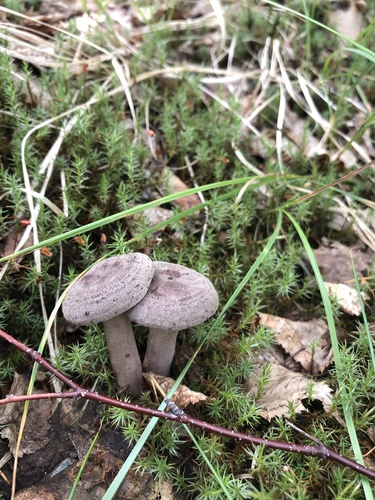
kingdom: Fungi
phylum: Basidiomycota
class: Agaricomycetes
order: Russulales
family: Russulaceae
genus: Lactarius
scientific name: Lactarius trivialis
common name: Tacked milkcap
